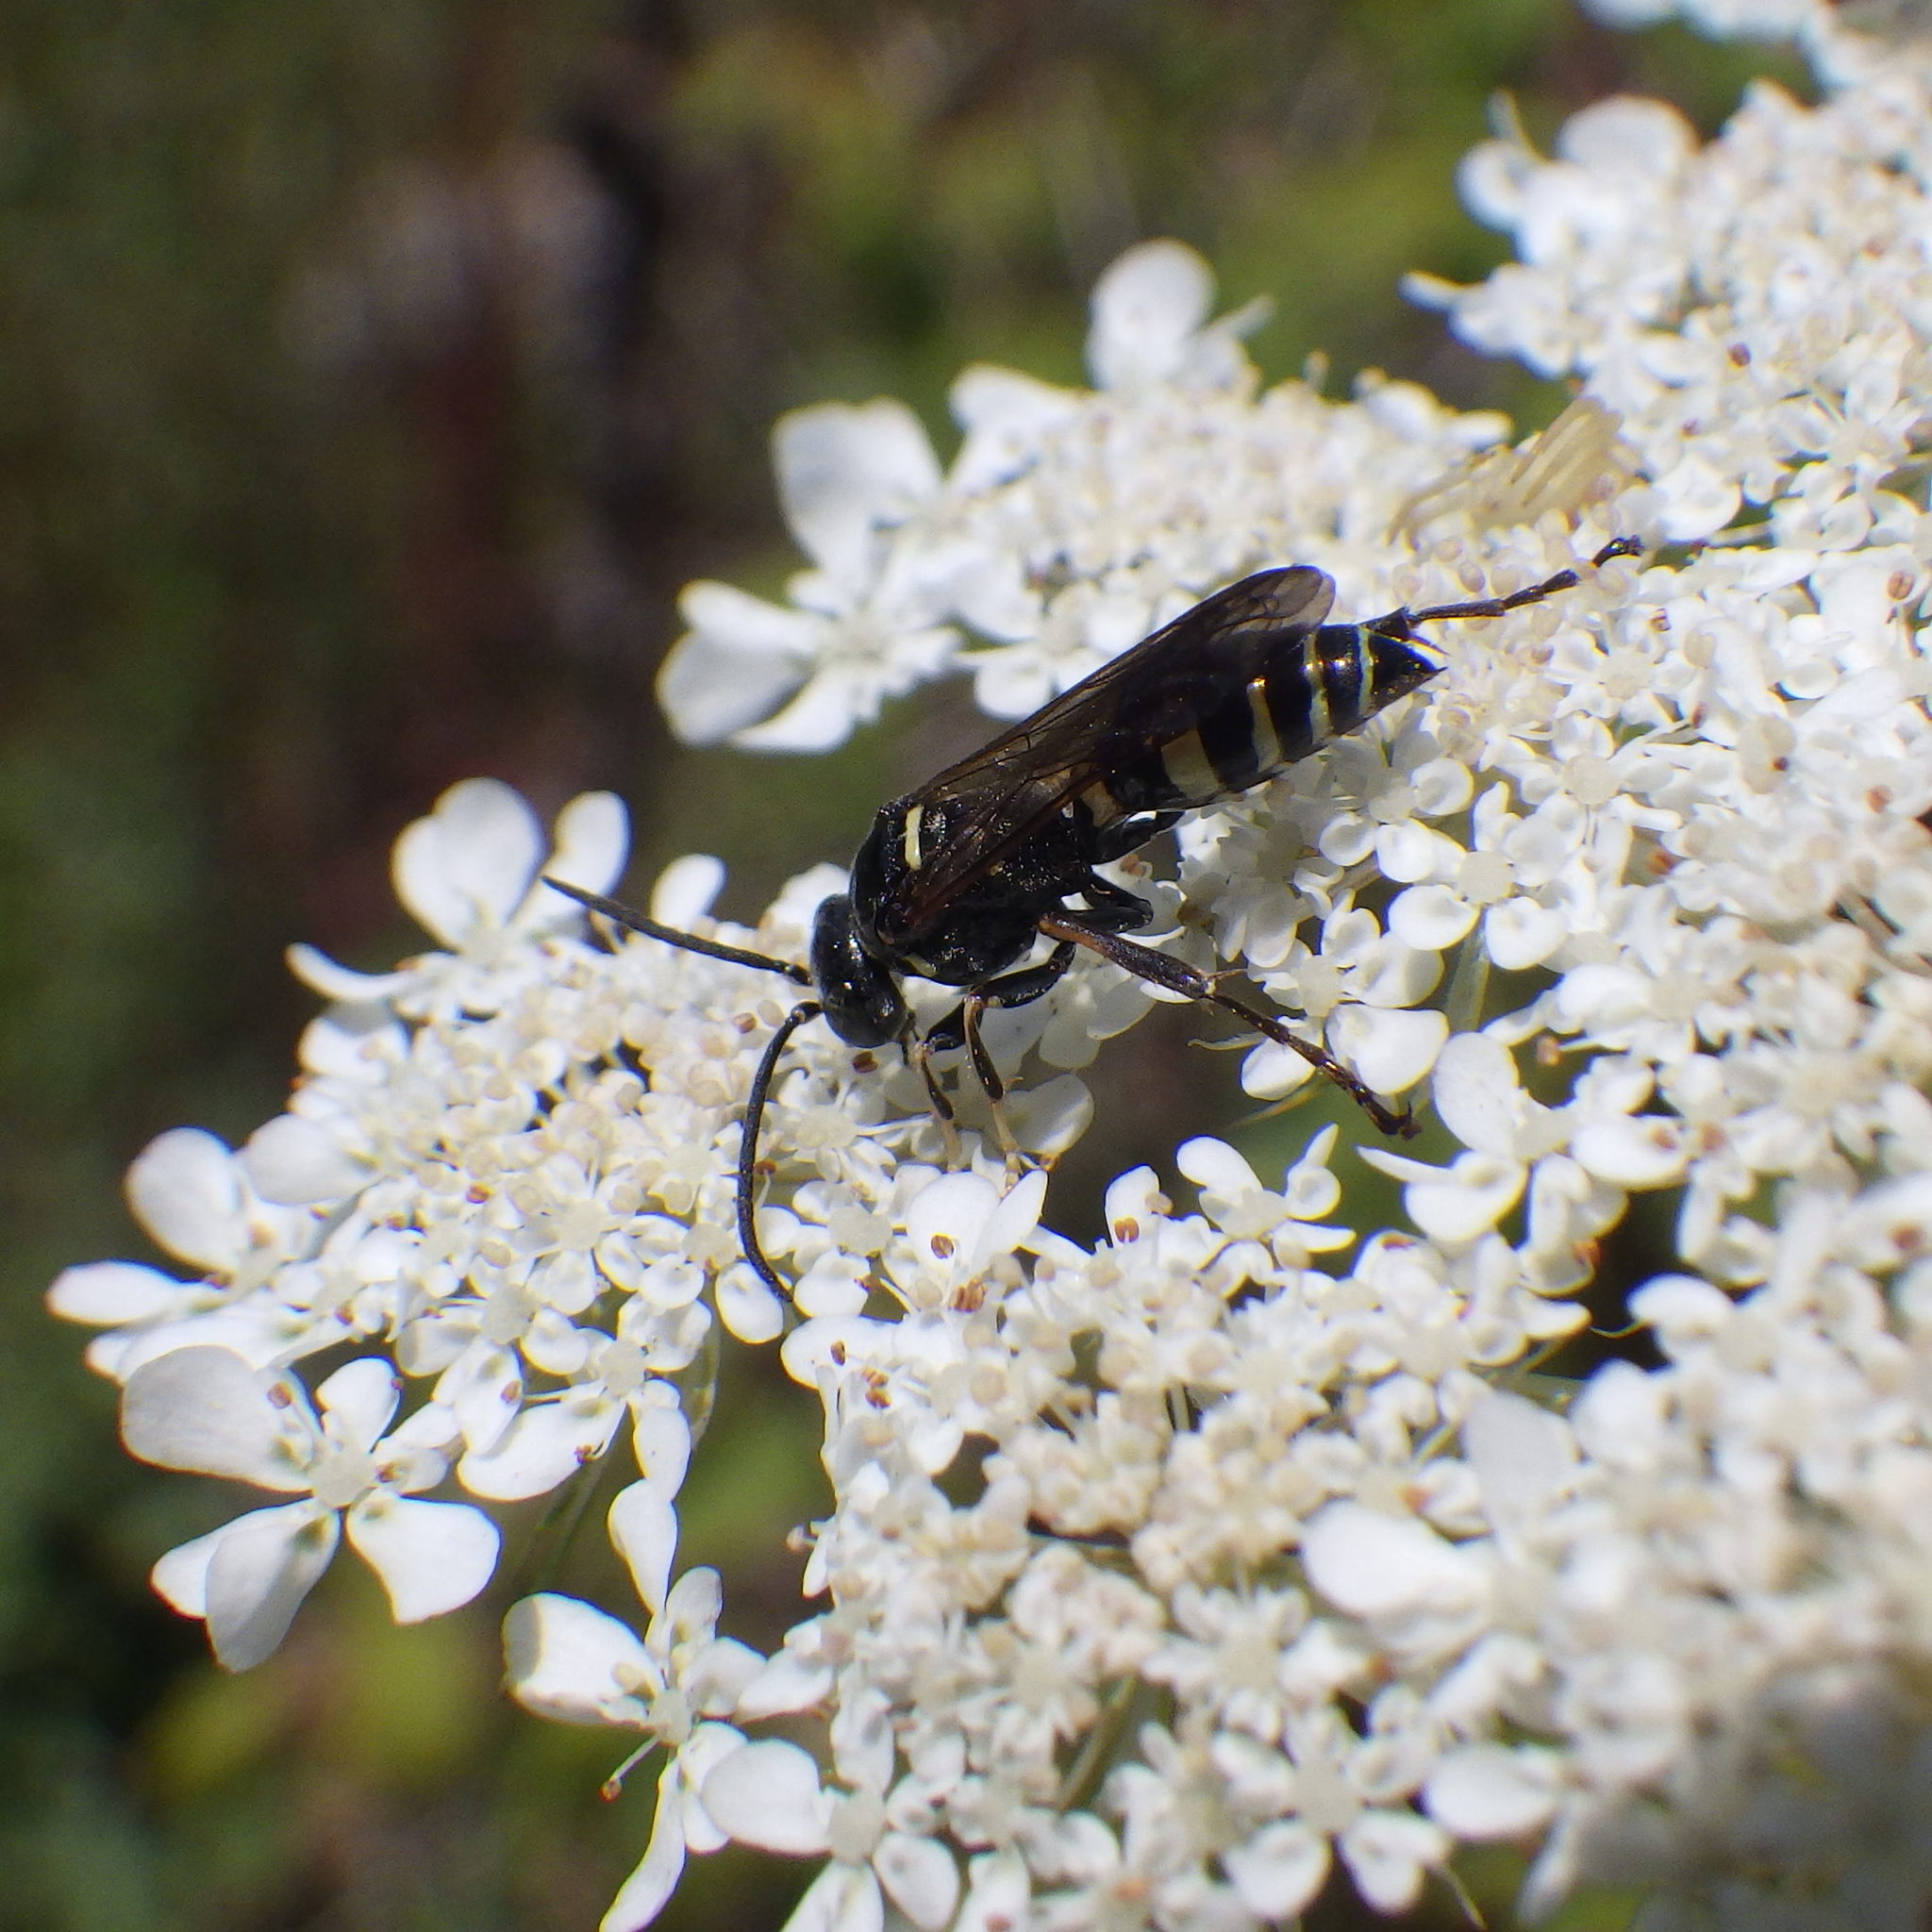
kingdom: Animalia
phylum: Arthropoda
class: Insecta
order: Hymenoptera
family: Crabronidae
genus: Gorytes
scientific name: Gorytes atricornis
